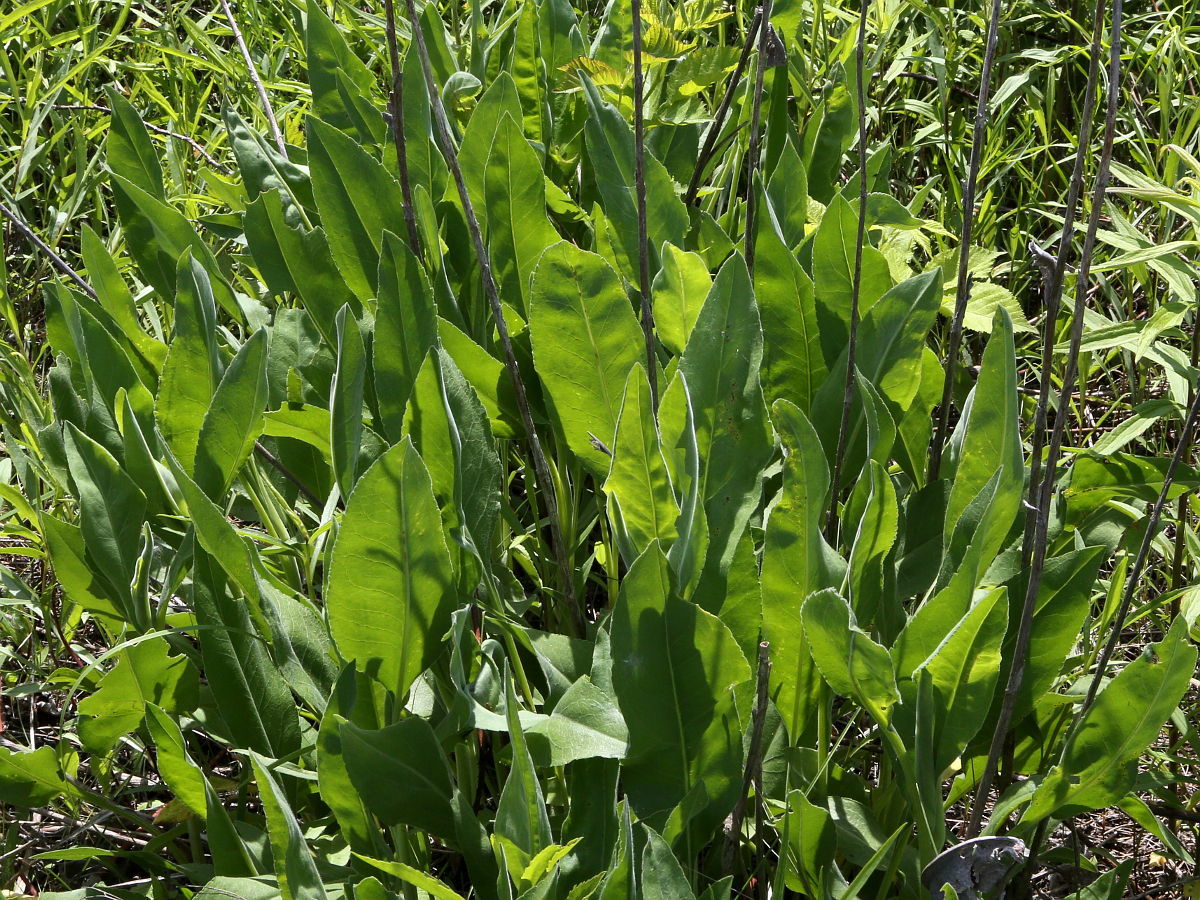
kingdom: Plantae
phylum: Tracheophyta
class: Magnoliopsida
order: Asterales
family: Asteraceae
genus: Solidago
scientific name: Solidago rigida
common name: Rigid goldenrod
